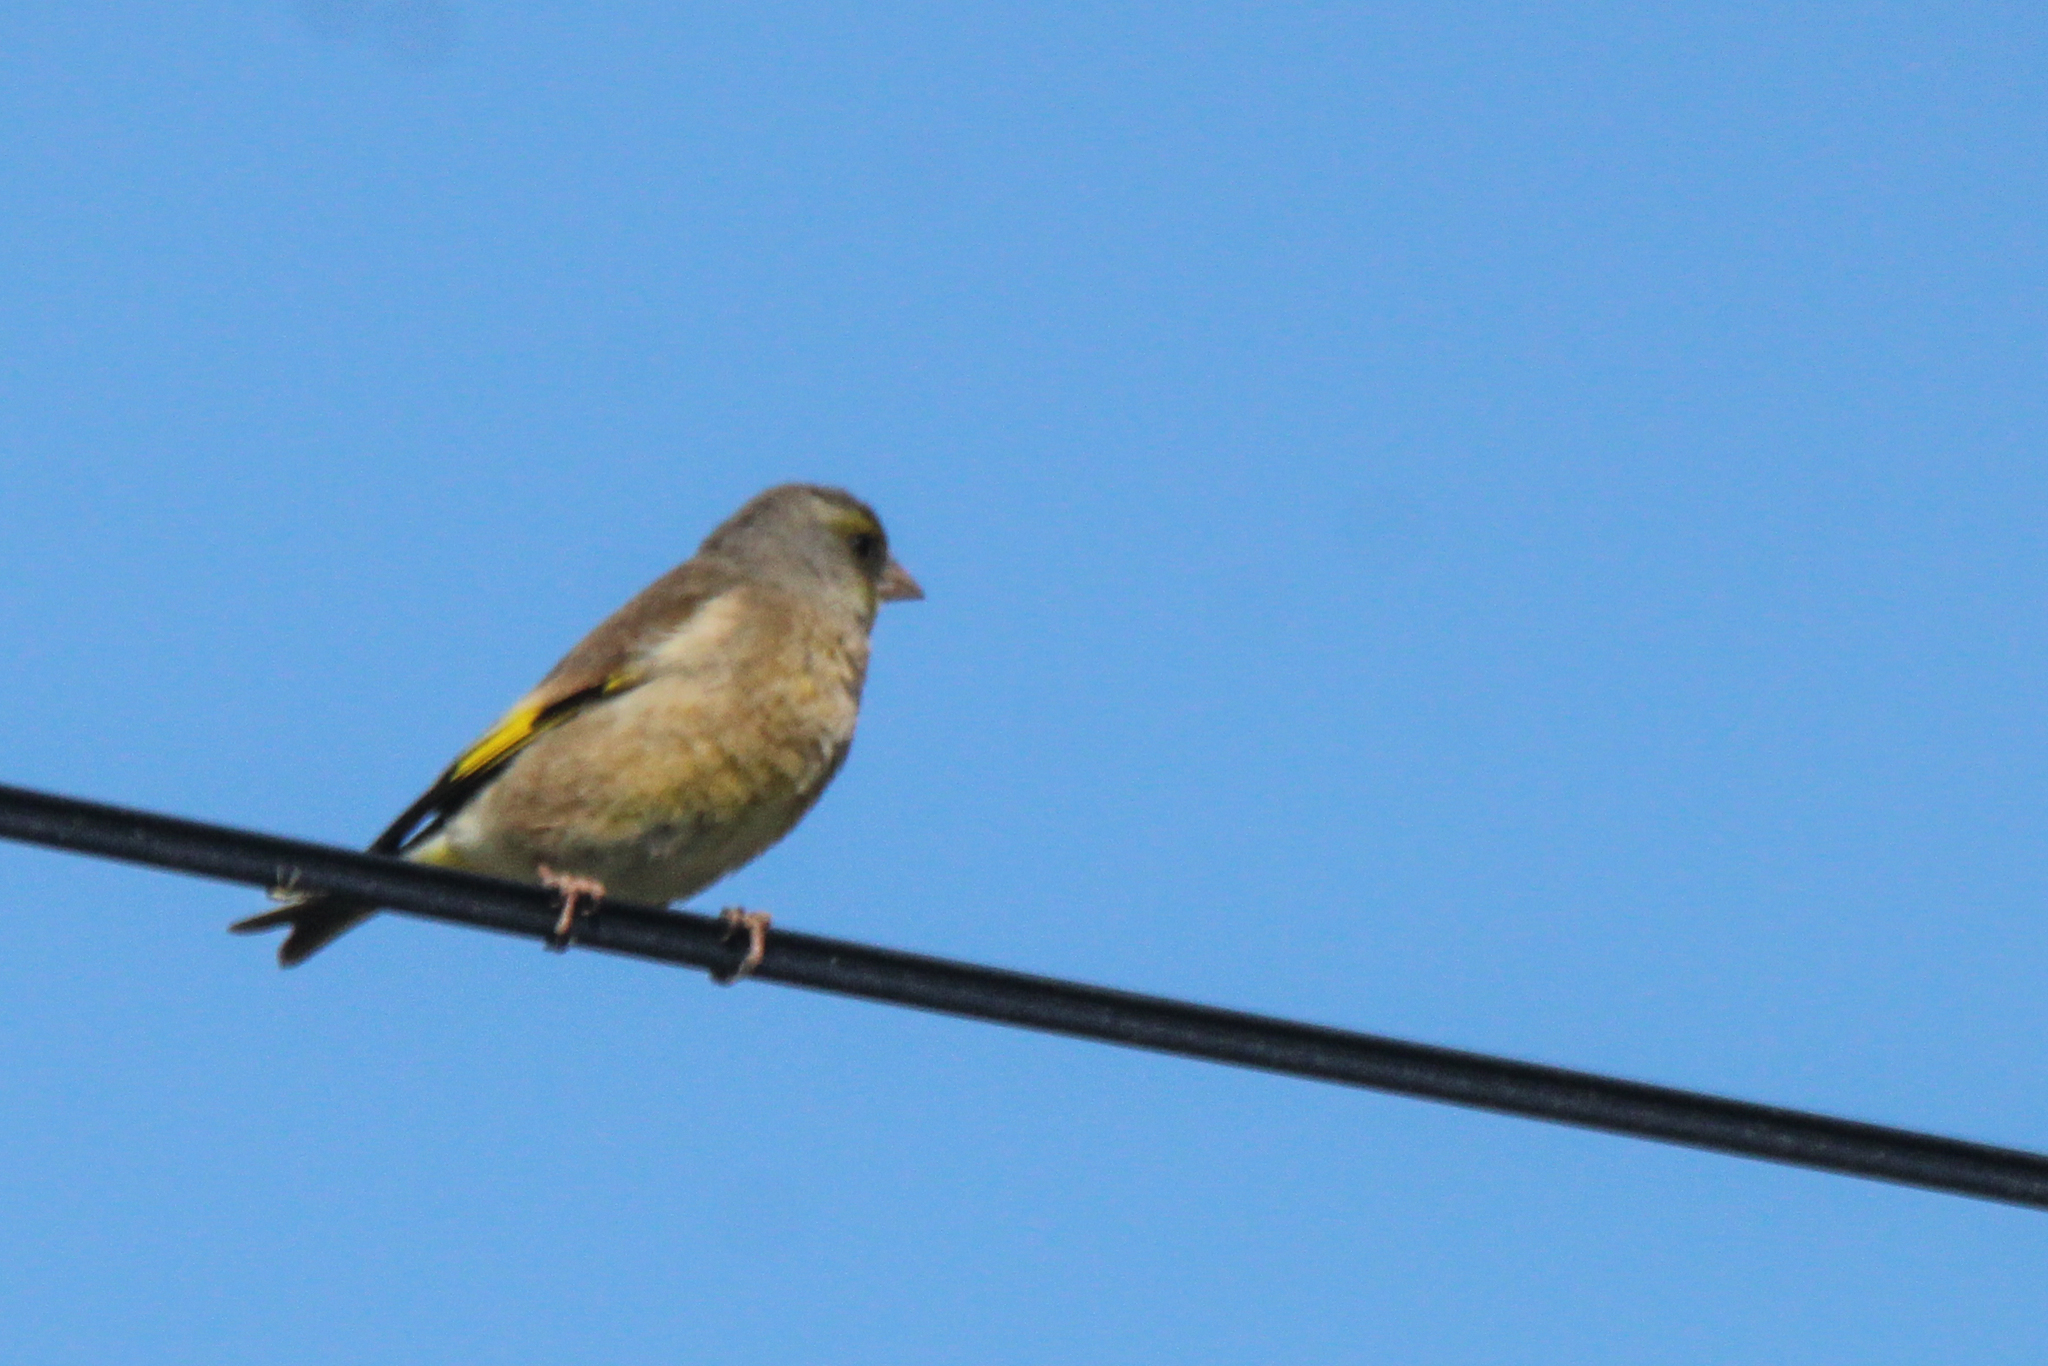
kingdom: Plantae
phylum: Tracheophyta
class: Liliopsida
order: Poales
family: Poaceae
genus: Chloris
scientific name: Chloris sinica
